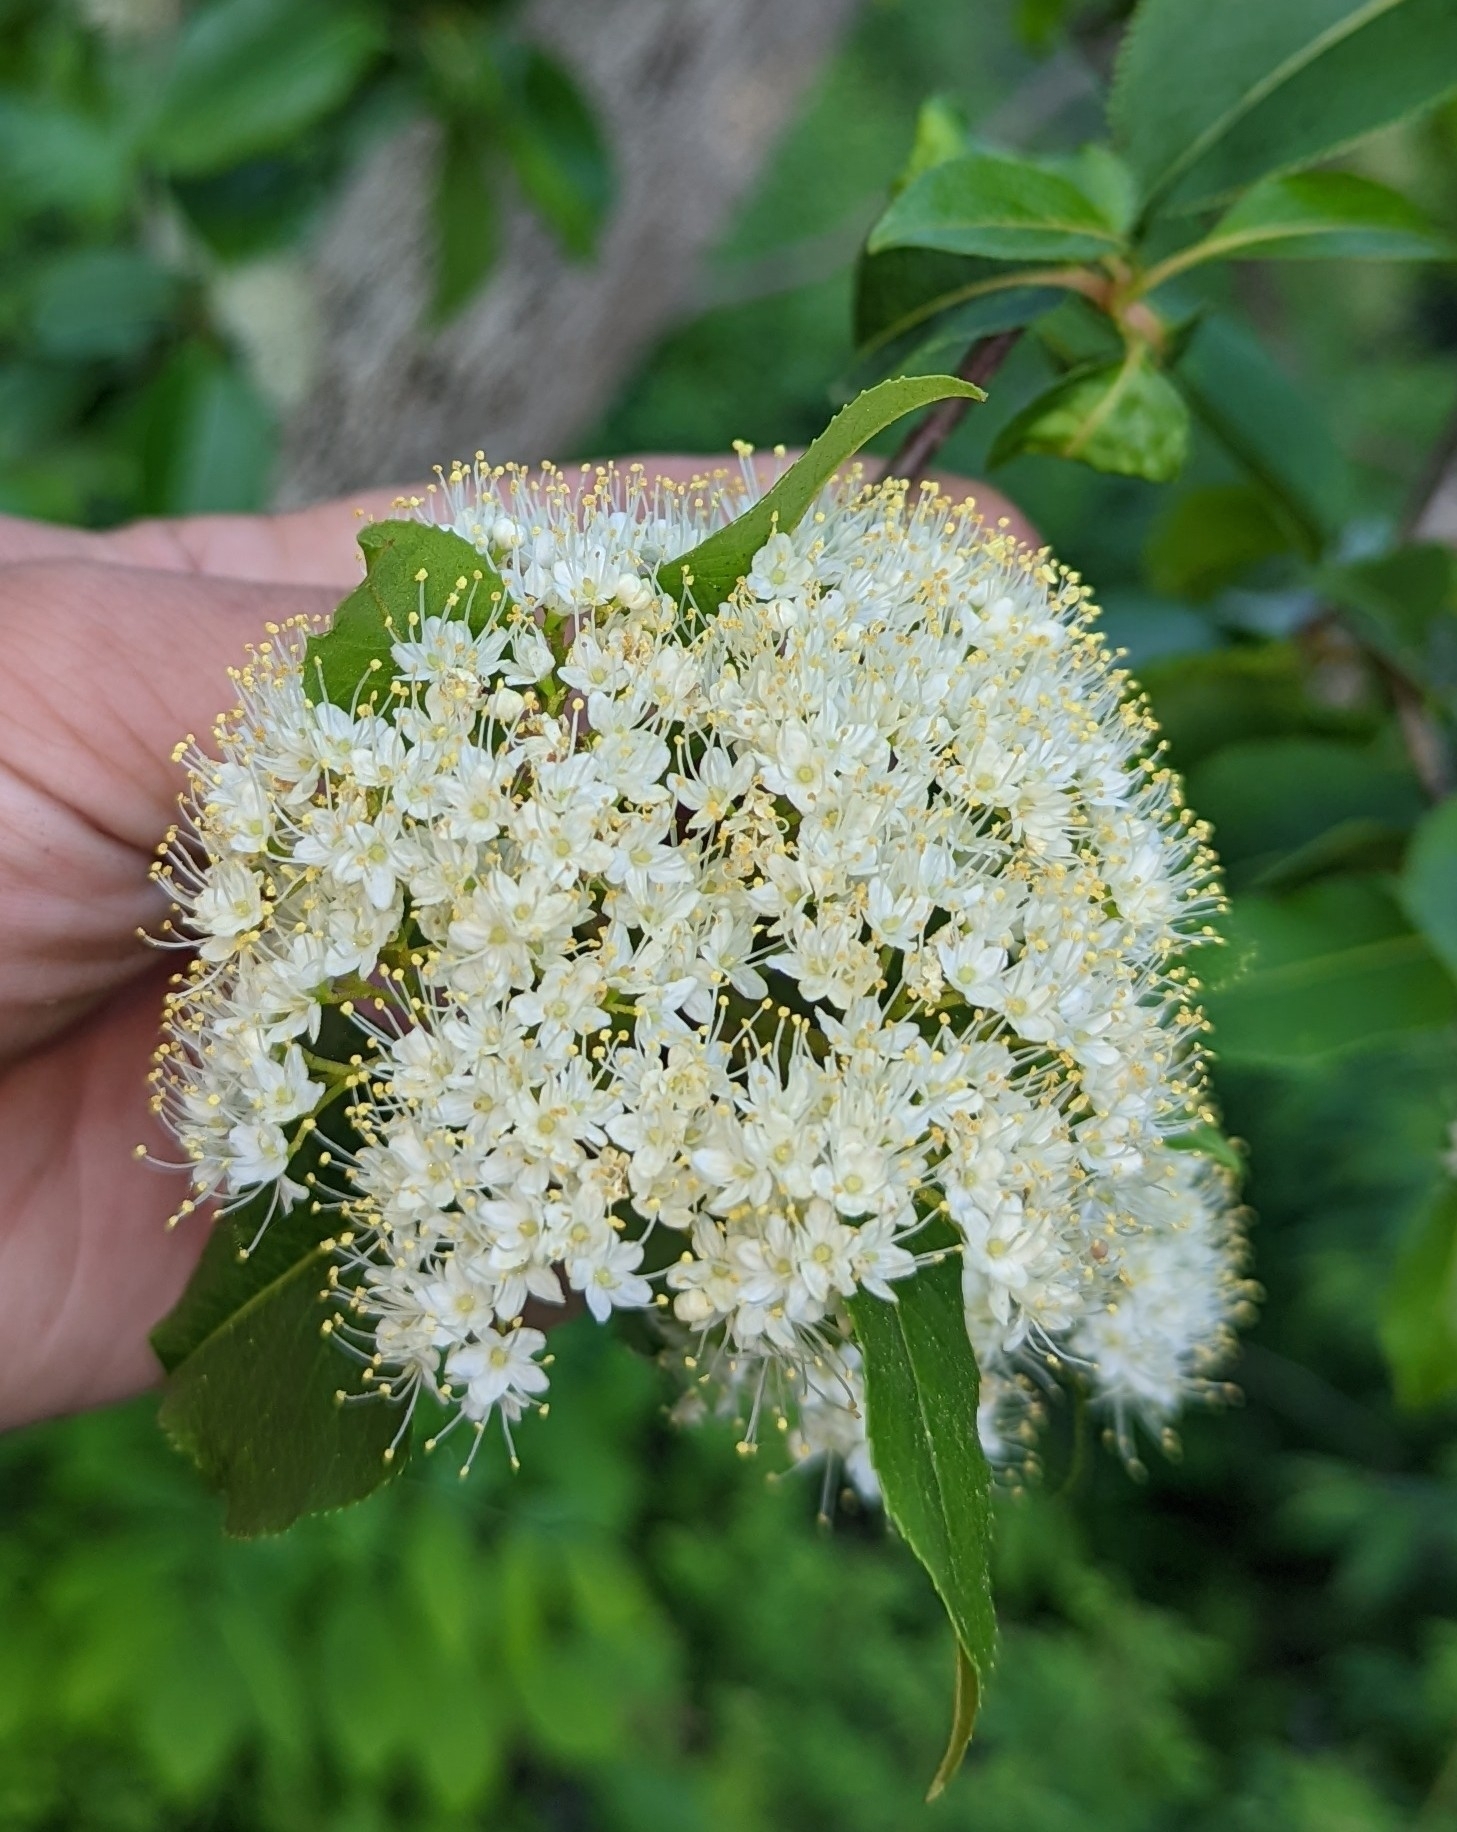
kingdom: Plantae
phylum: Tracheophyta
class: Magnoliopsida
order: Dipsacales
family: Viburnaceae
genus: Viburnum
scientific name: Viburnum lentago
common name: Black haw
